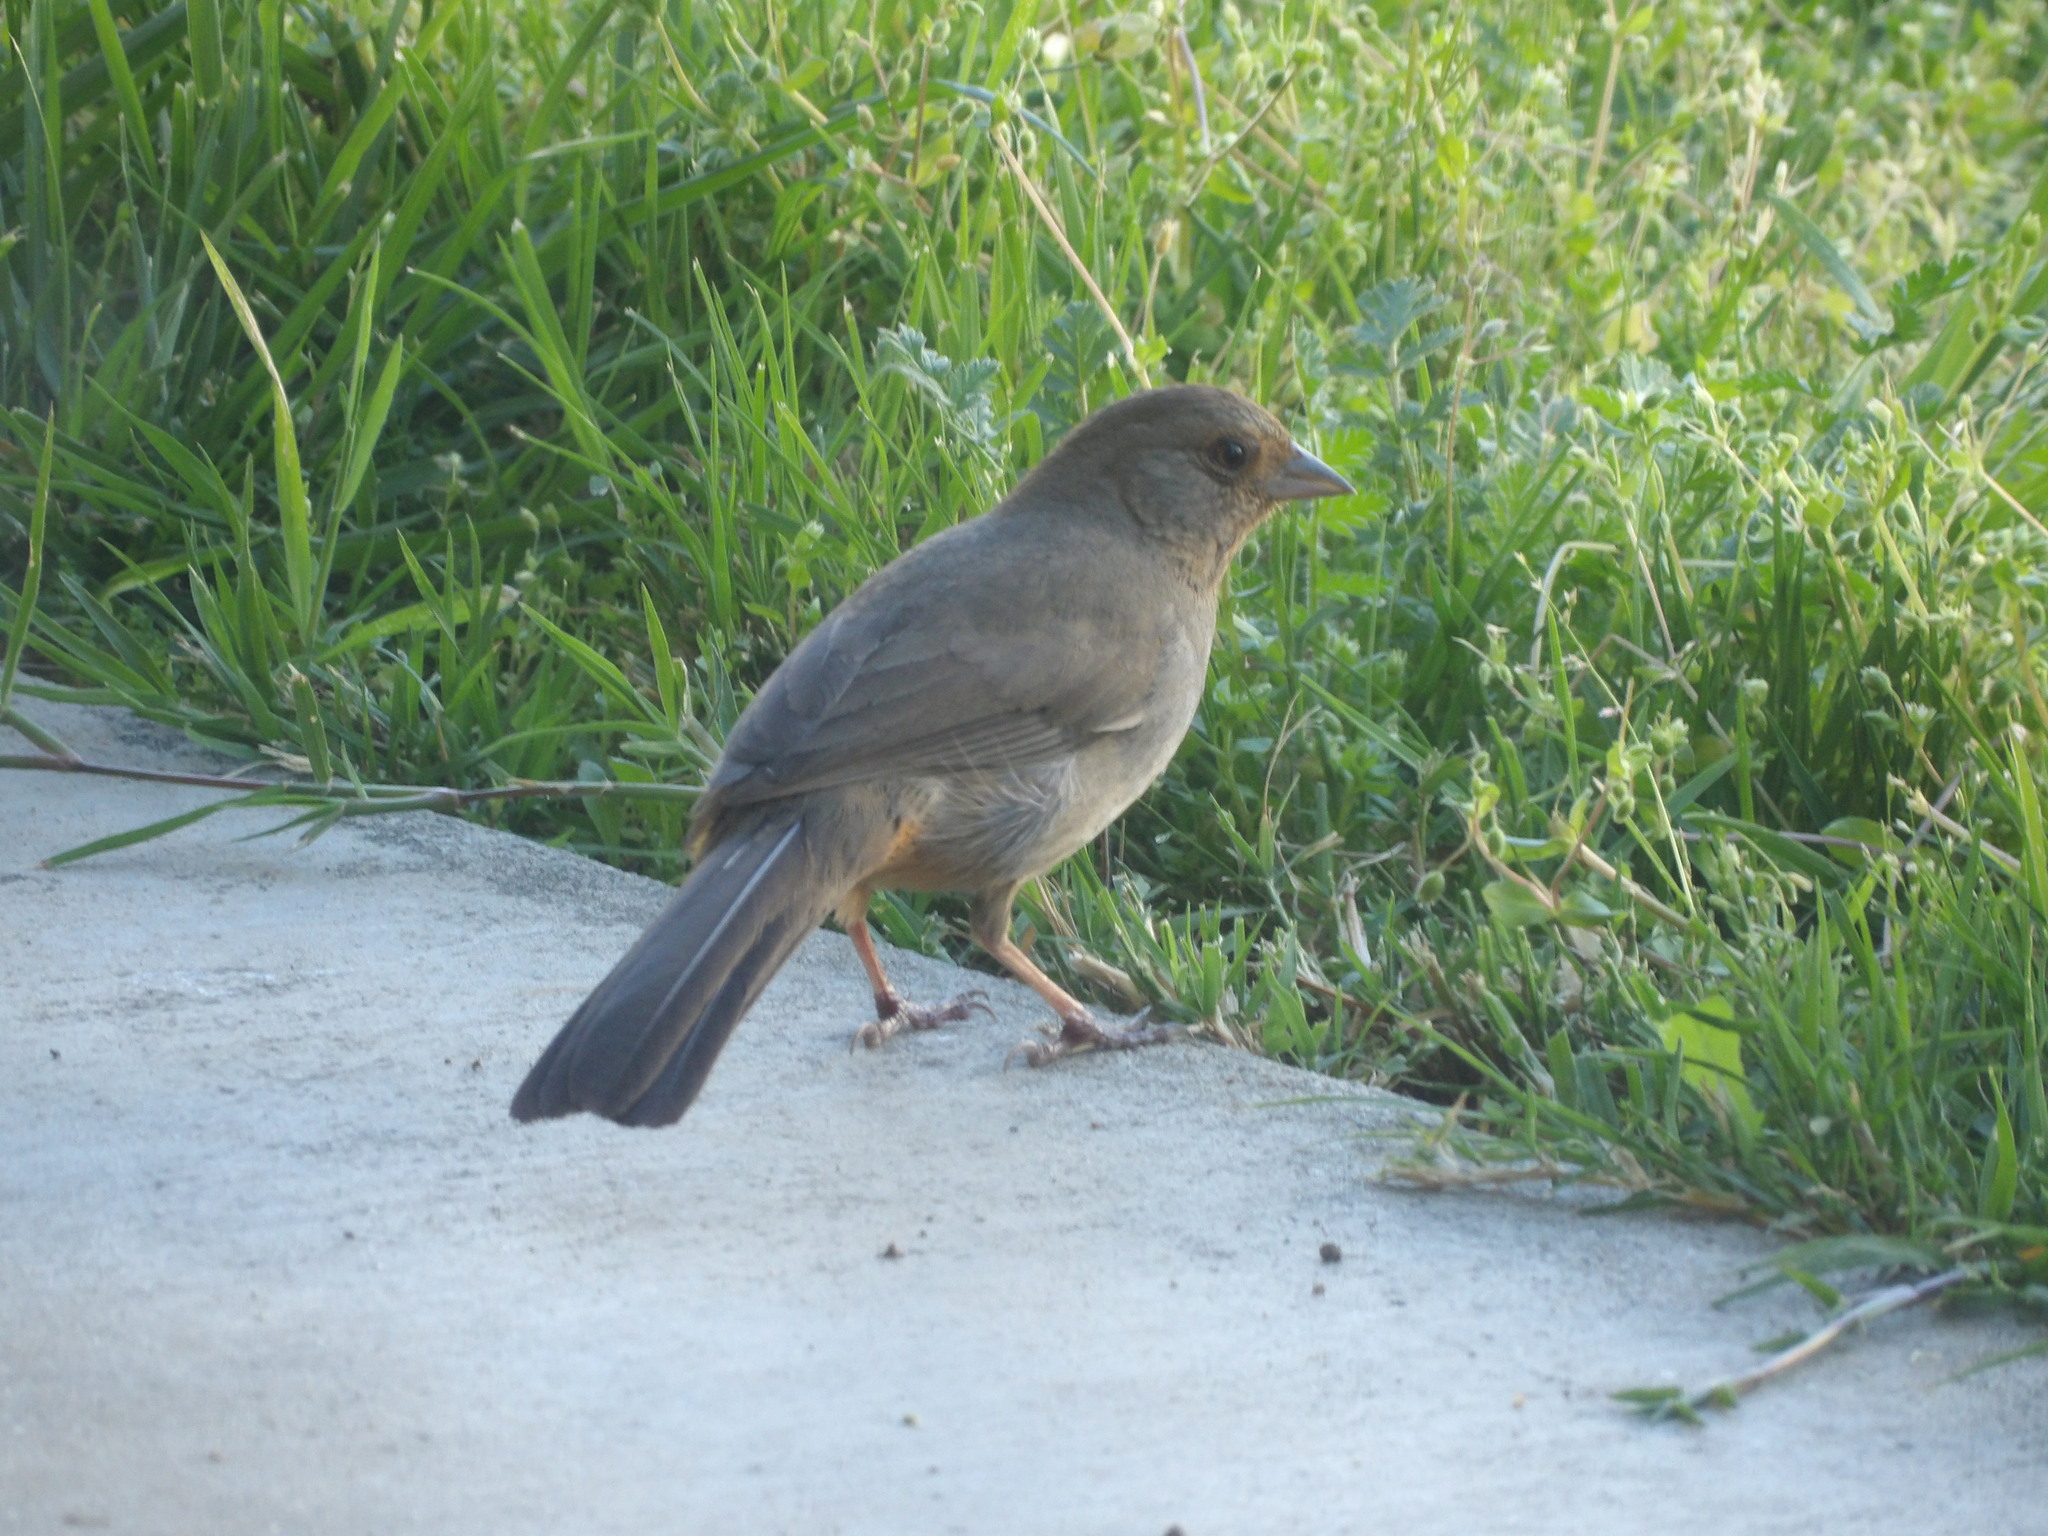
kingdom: Animalia
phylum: Chordata
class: Aves
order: Passeriformes
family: Passerellidae
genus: Melozone
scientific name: Melozone crissalis
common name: California towhee
